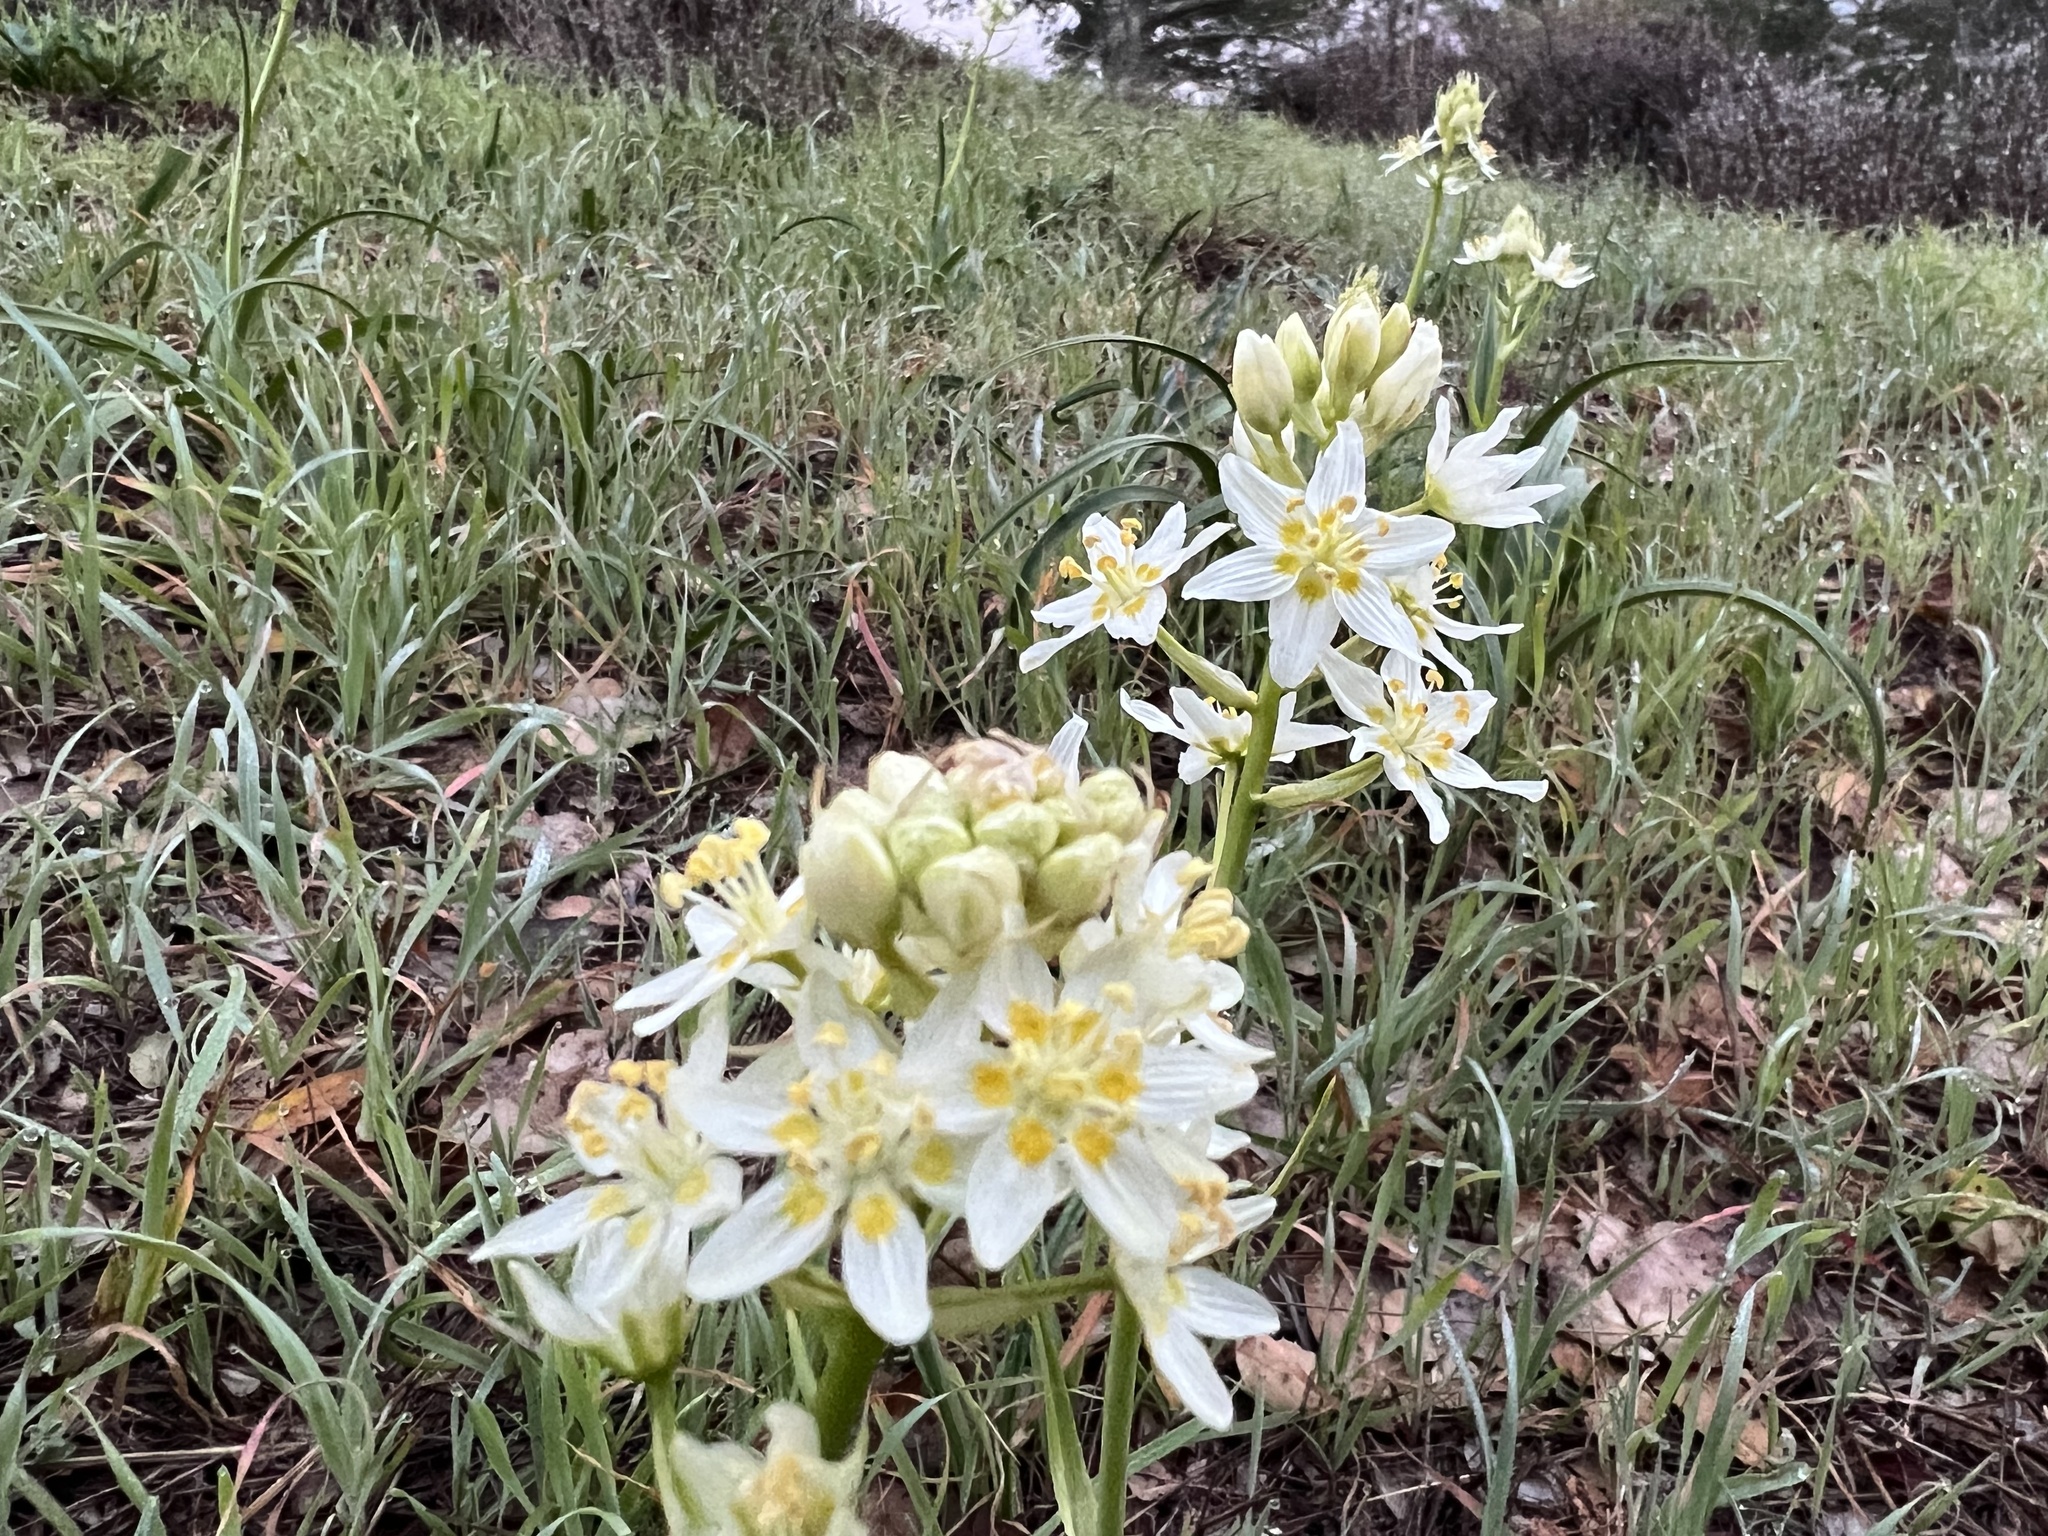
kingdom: Plantae
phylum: Tracheophyta
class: Liliopsida
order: Liliales
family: Melanthiaceae
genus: Toxicoscordion
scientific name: Toxicoscordion fremontii
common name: Fremont's death camas
